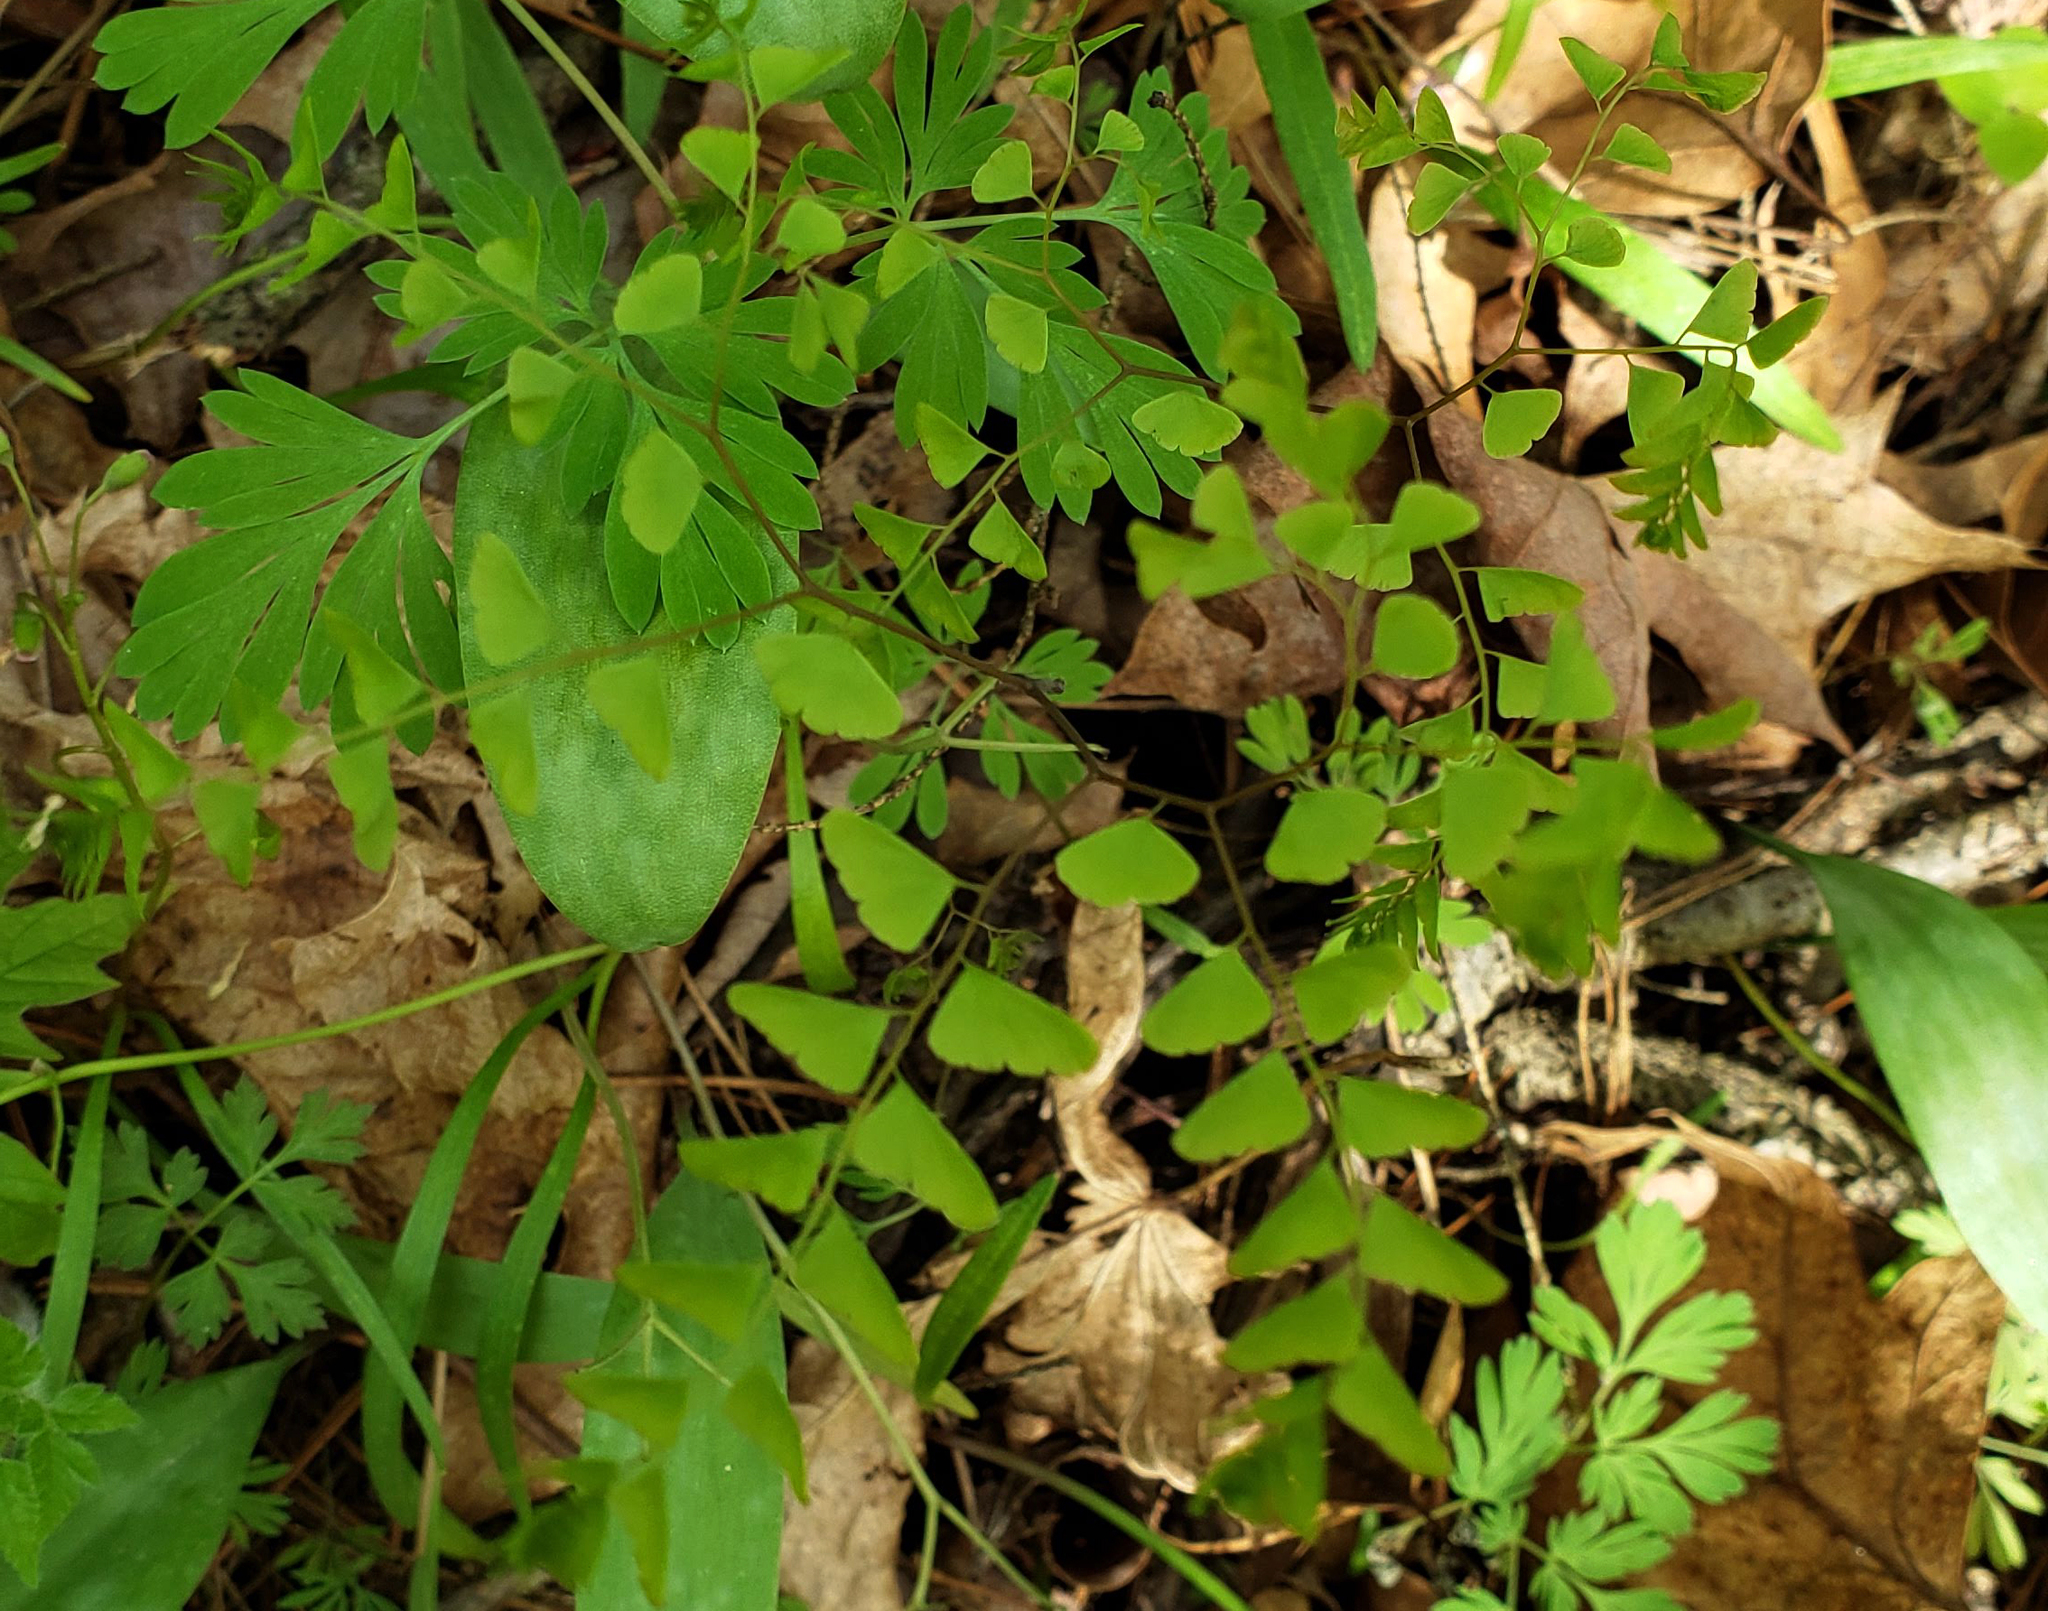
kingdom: Plantae
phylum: Tracheophyta
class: Polypodiopsida
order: Polypodiales
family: Pteridaceae
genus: Adiantum
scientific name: Adiantum pedatum
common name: Five-finger fern
